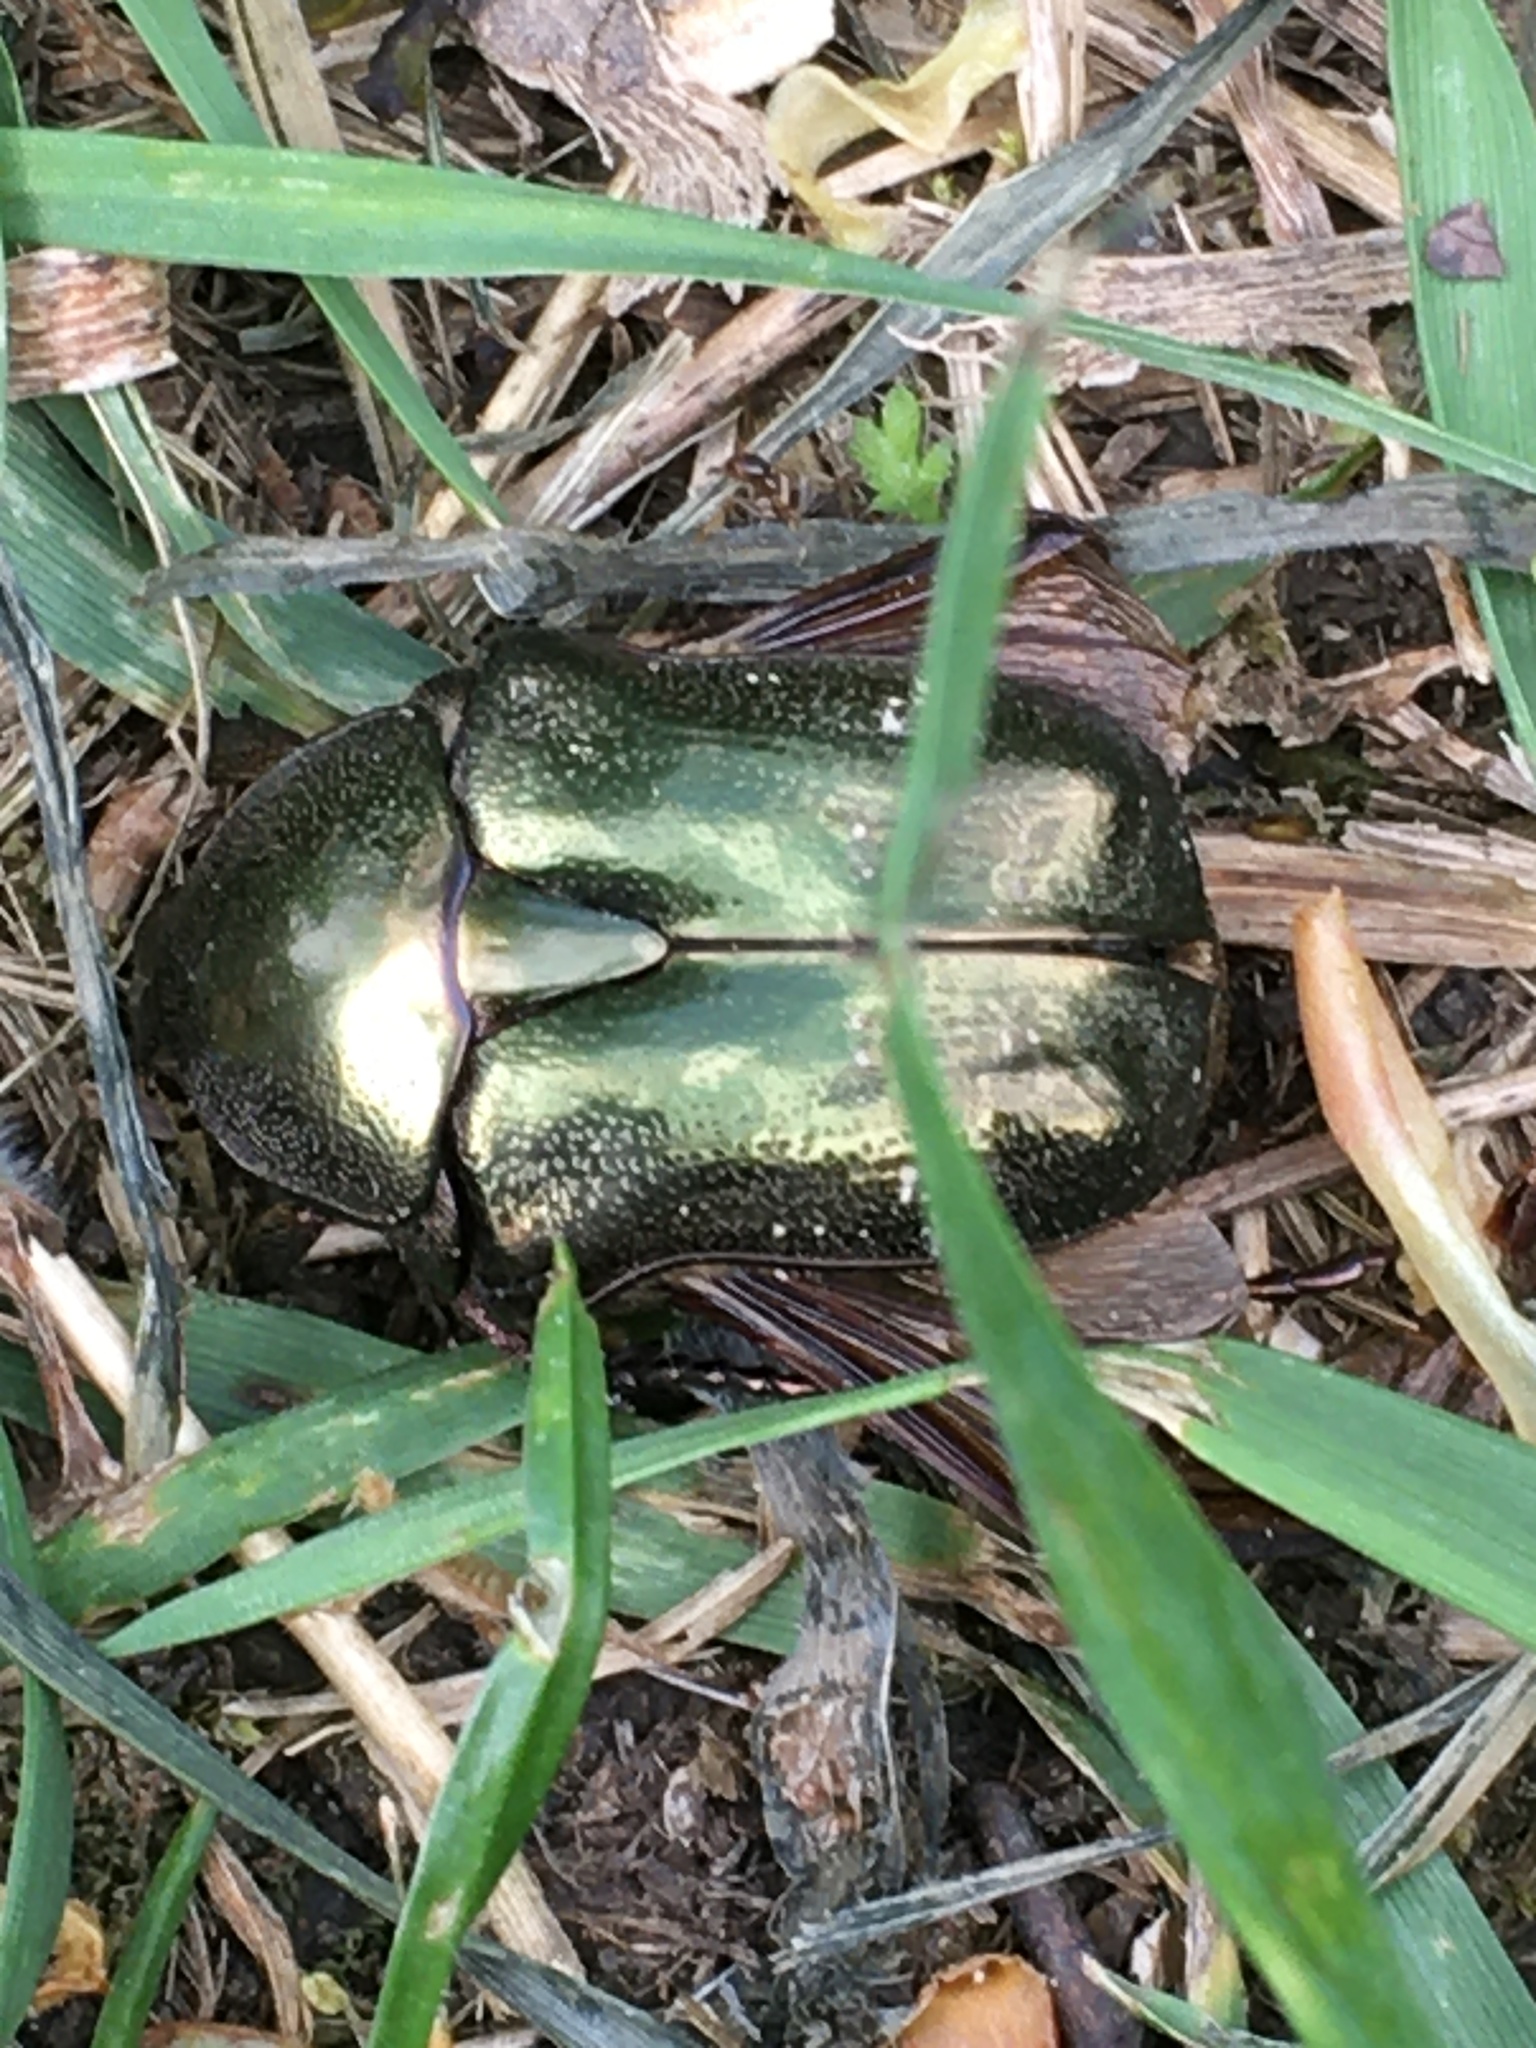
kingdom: Animalia
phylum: Arthropoda
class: Insecta
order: Coleoptera
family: Scarabaeidae
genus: Protaetia
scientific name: Protaetia fieberi
